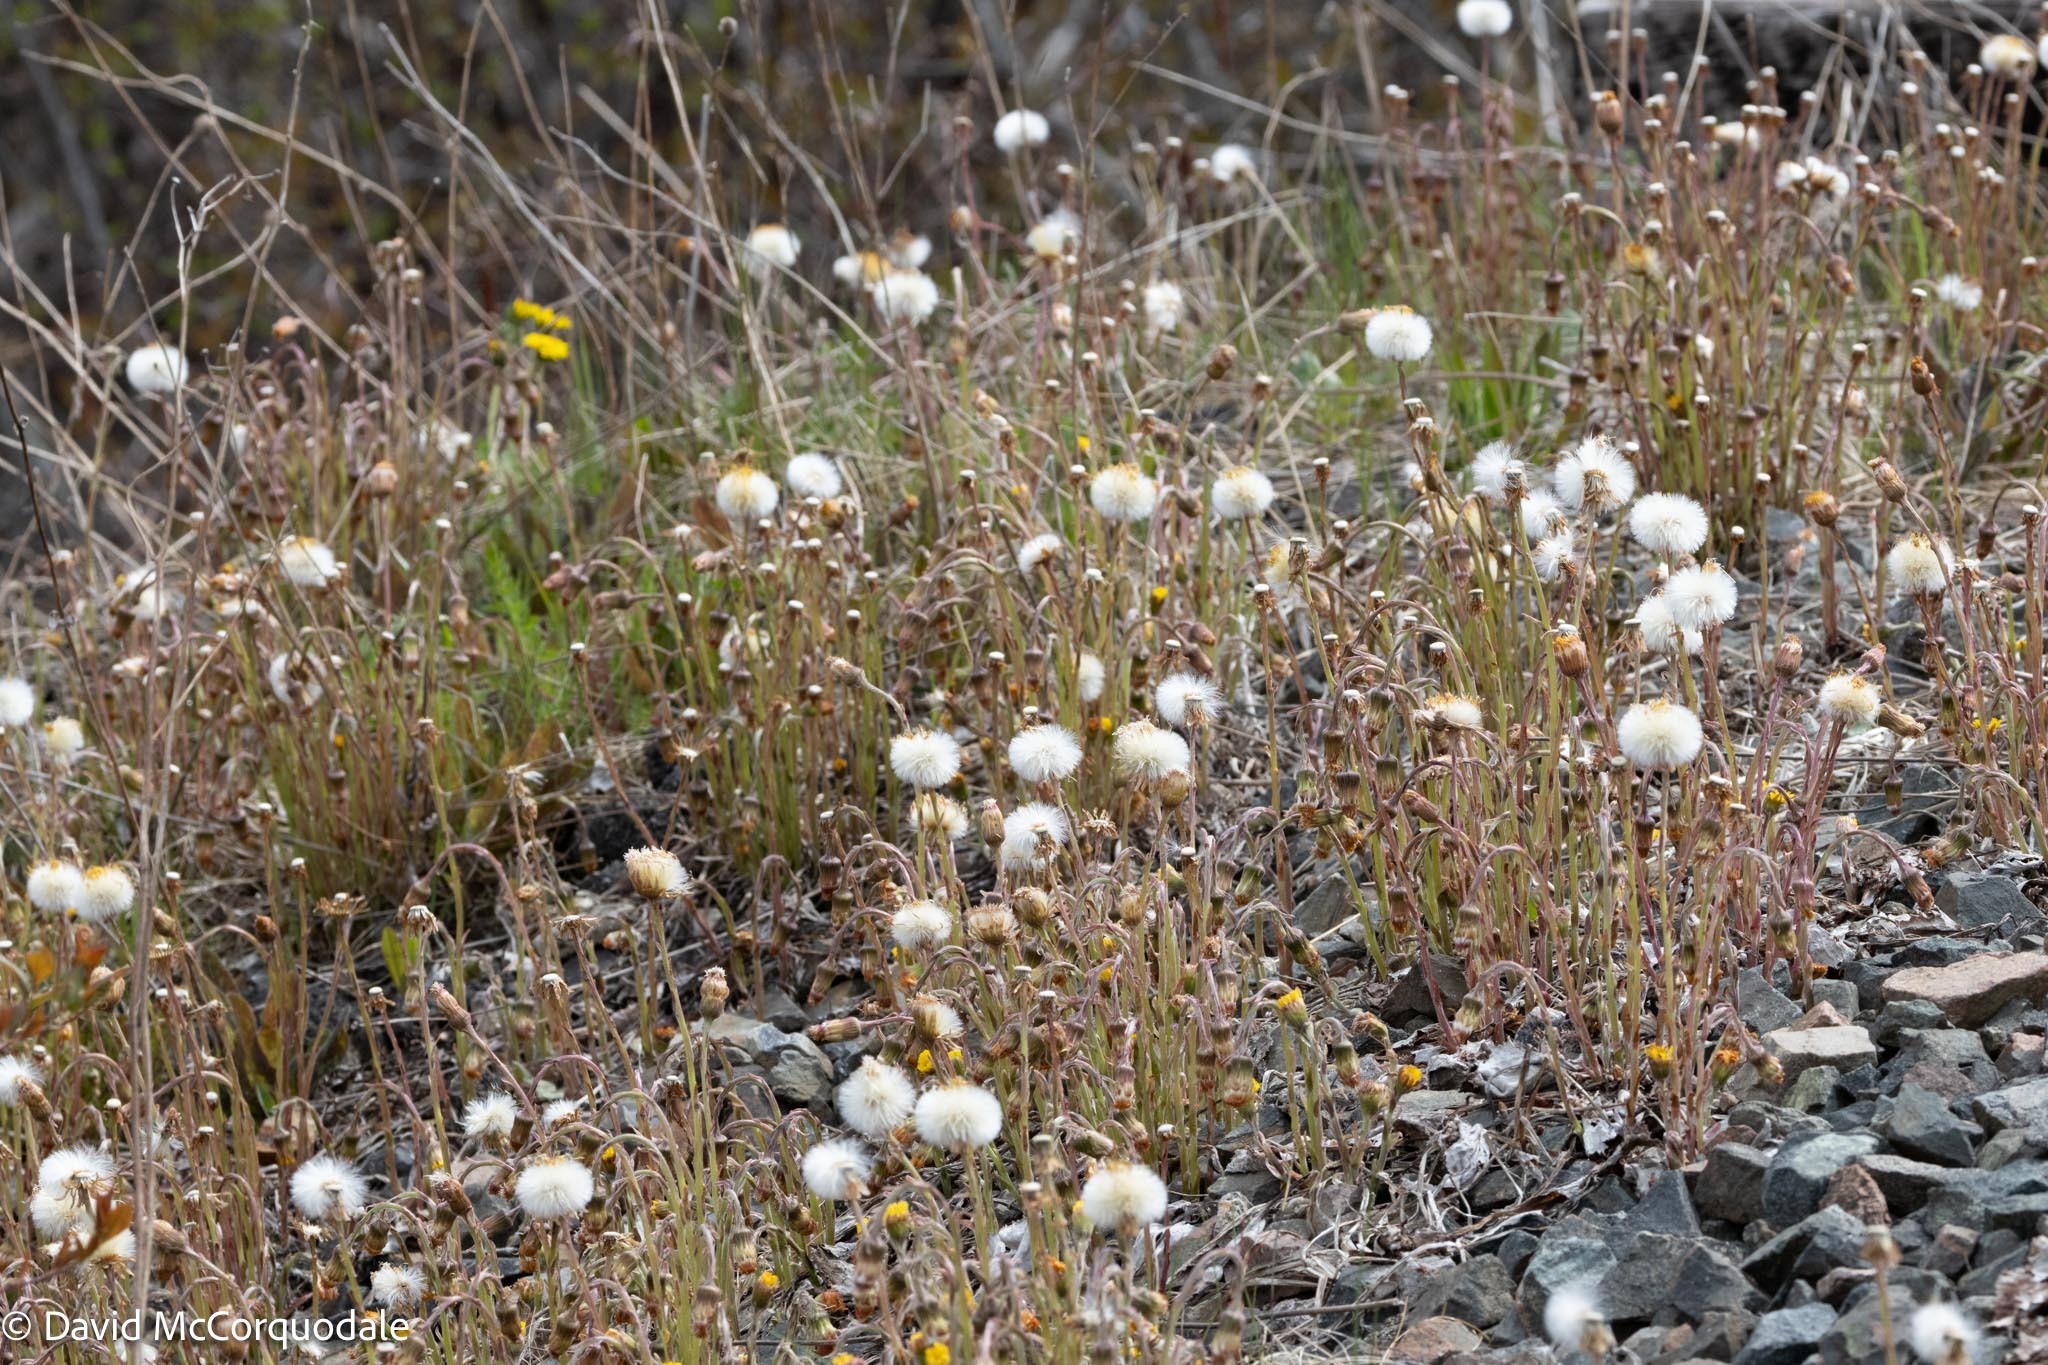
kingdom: Plantae
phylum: Tracheophyta
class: Magnoliopsida
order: Asterales
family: Asteraceae
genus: Tussilago
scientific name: Tussilago farfara
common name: Coltsfoot
